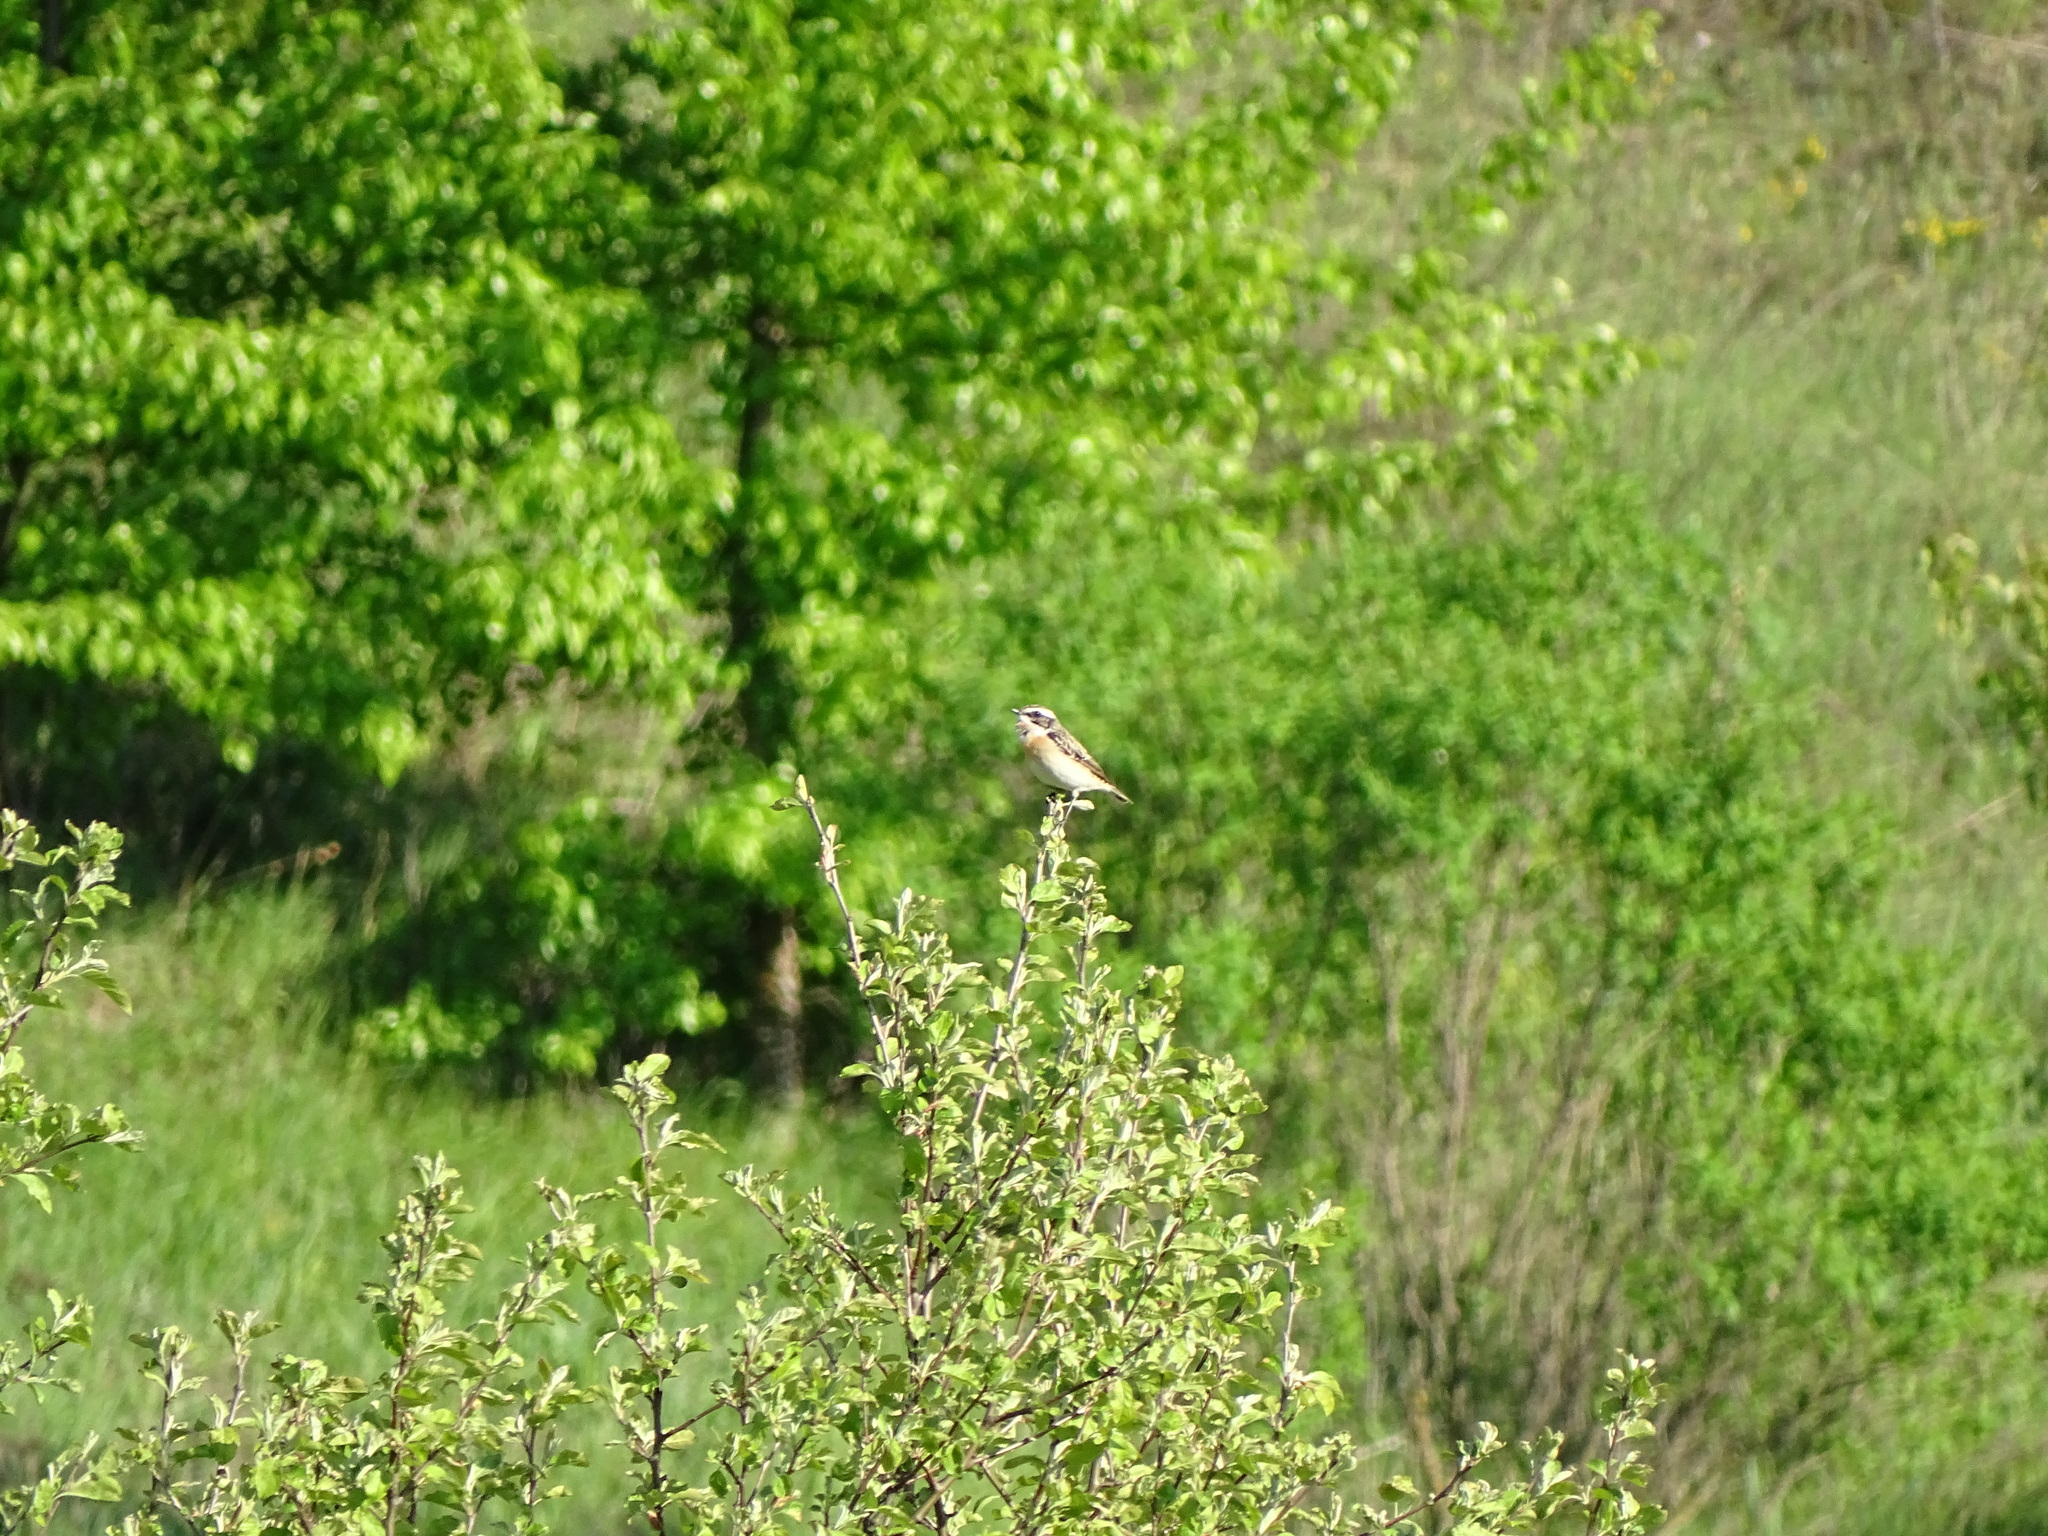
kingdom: Animalia
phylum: Chordata
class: Aves
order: Passeriformes
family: Muscicapidae
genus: Saxicola
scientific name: Saxicola rubetra
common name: Whinchat
